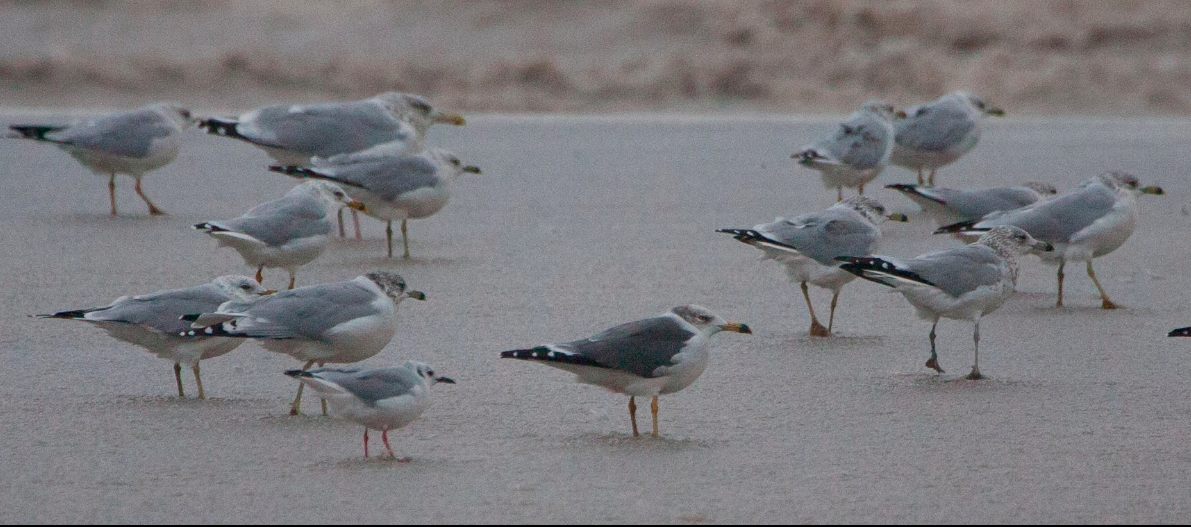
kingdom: Animalia
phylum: Chordata
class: Aves
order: Charadriiformes
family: Laridae
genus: Larus
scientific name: Larus crassirostris
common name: Black-tailed gull
